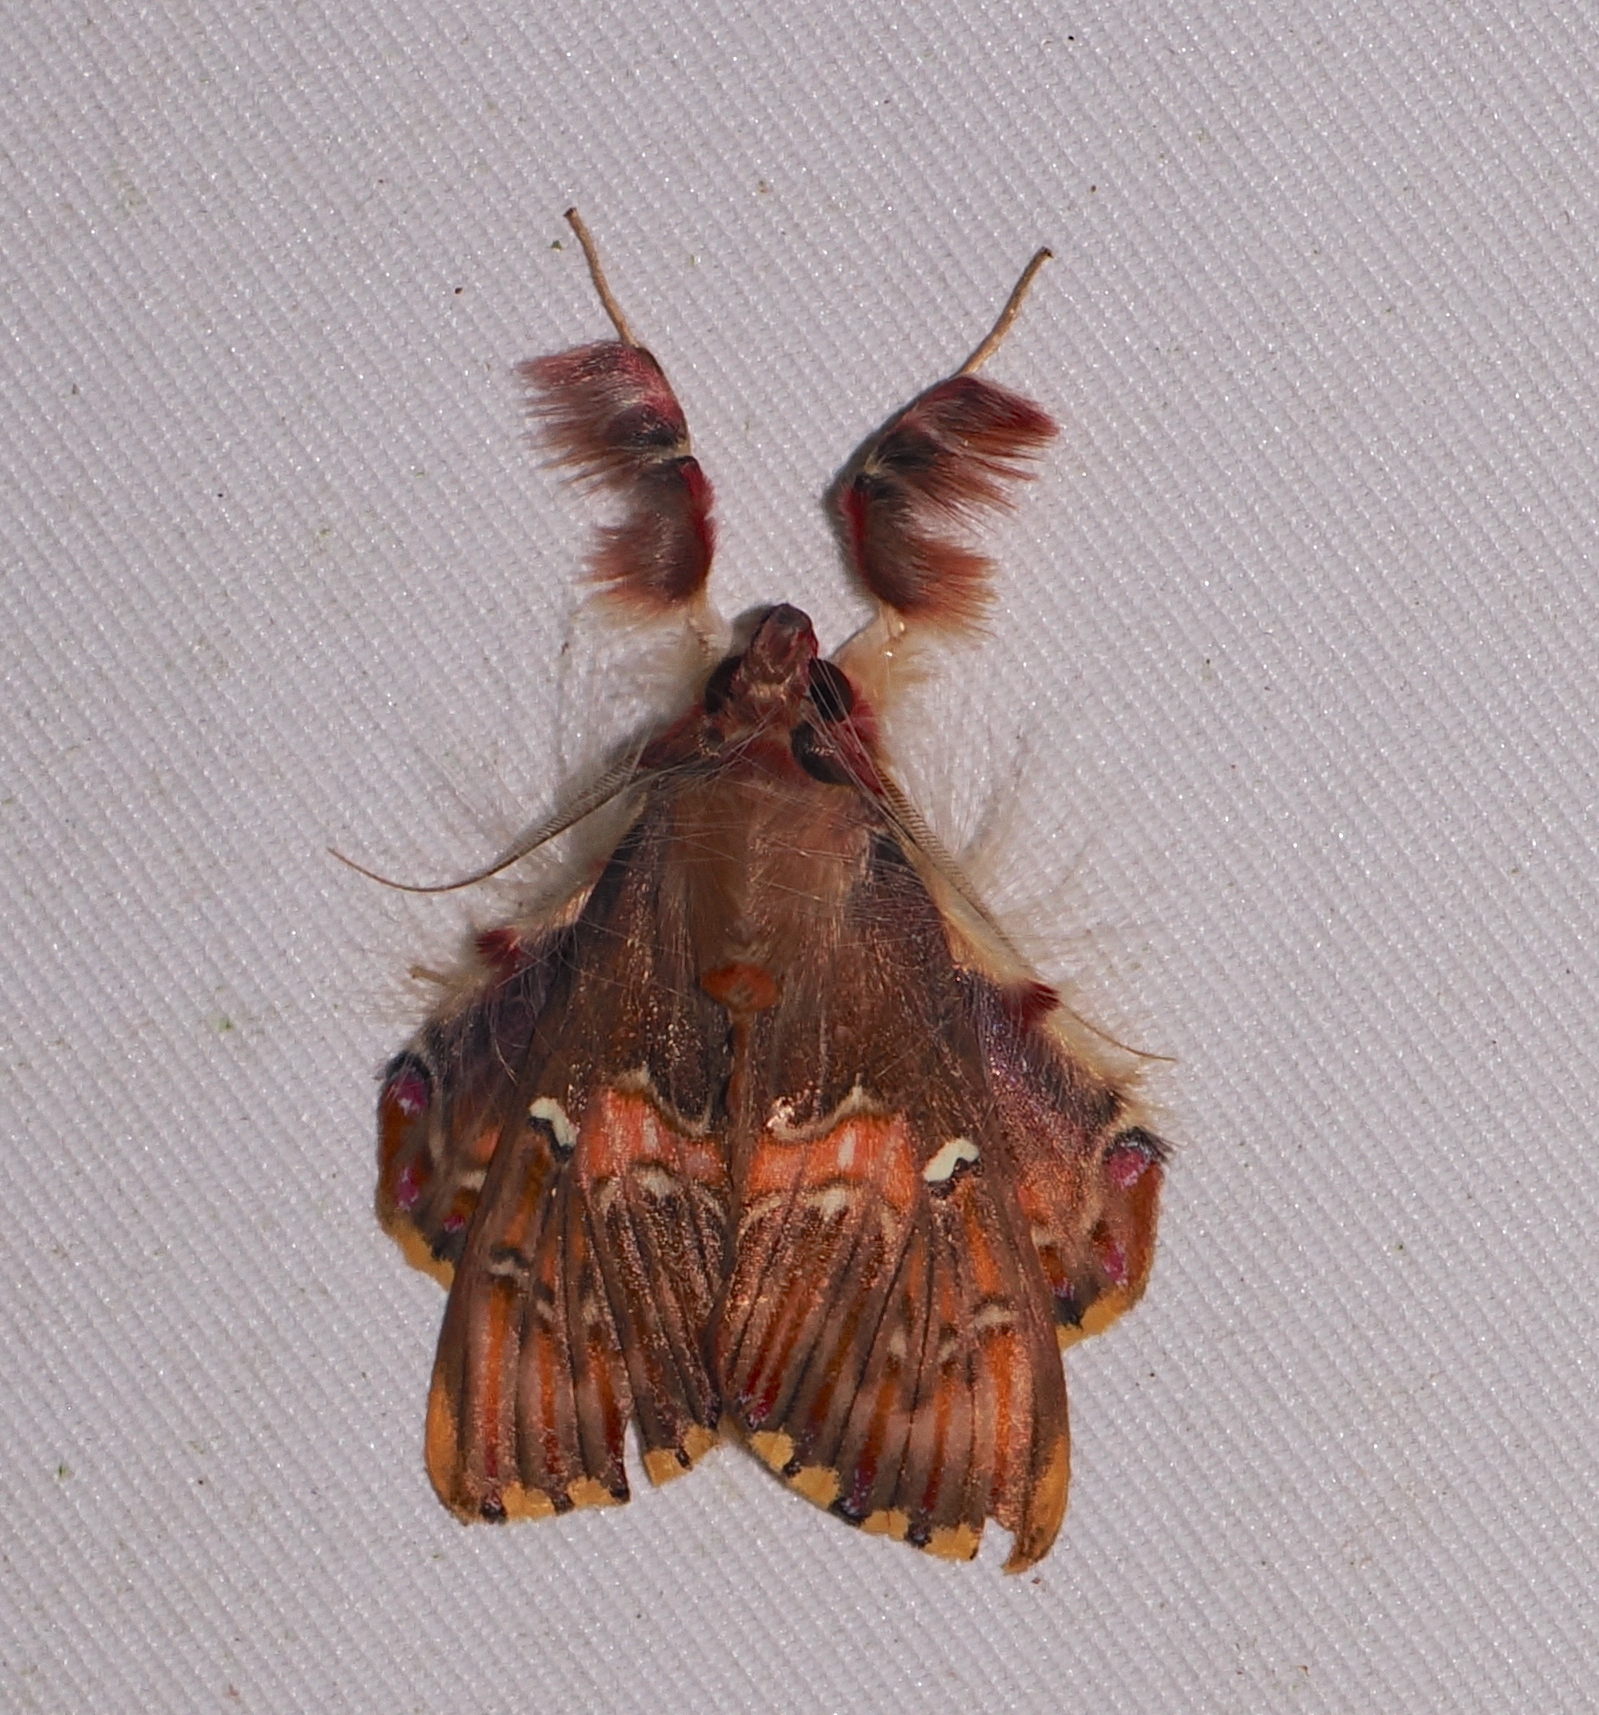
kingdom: Animalia
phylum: Arthropoda
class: Insecta
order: Lepidoptera
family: Erebidae
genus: Sosxetra
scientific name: Sosxetra grata
